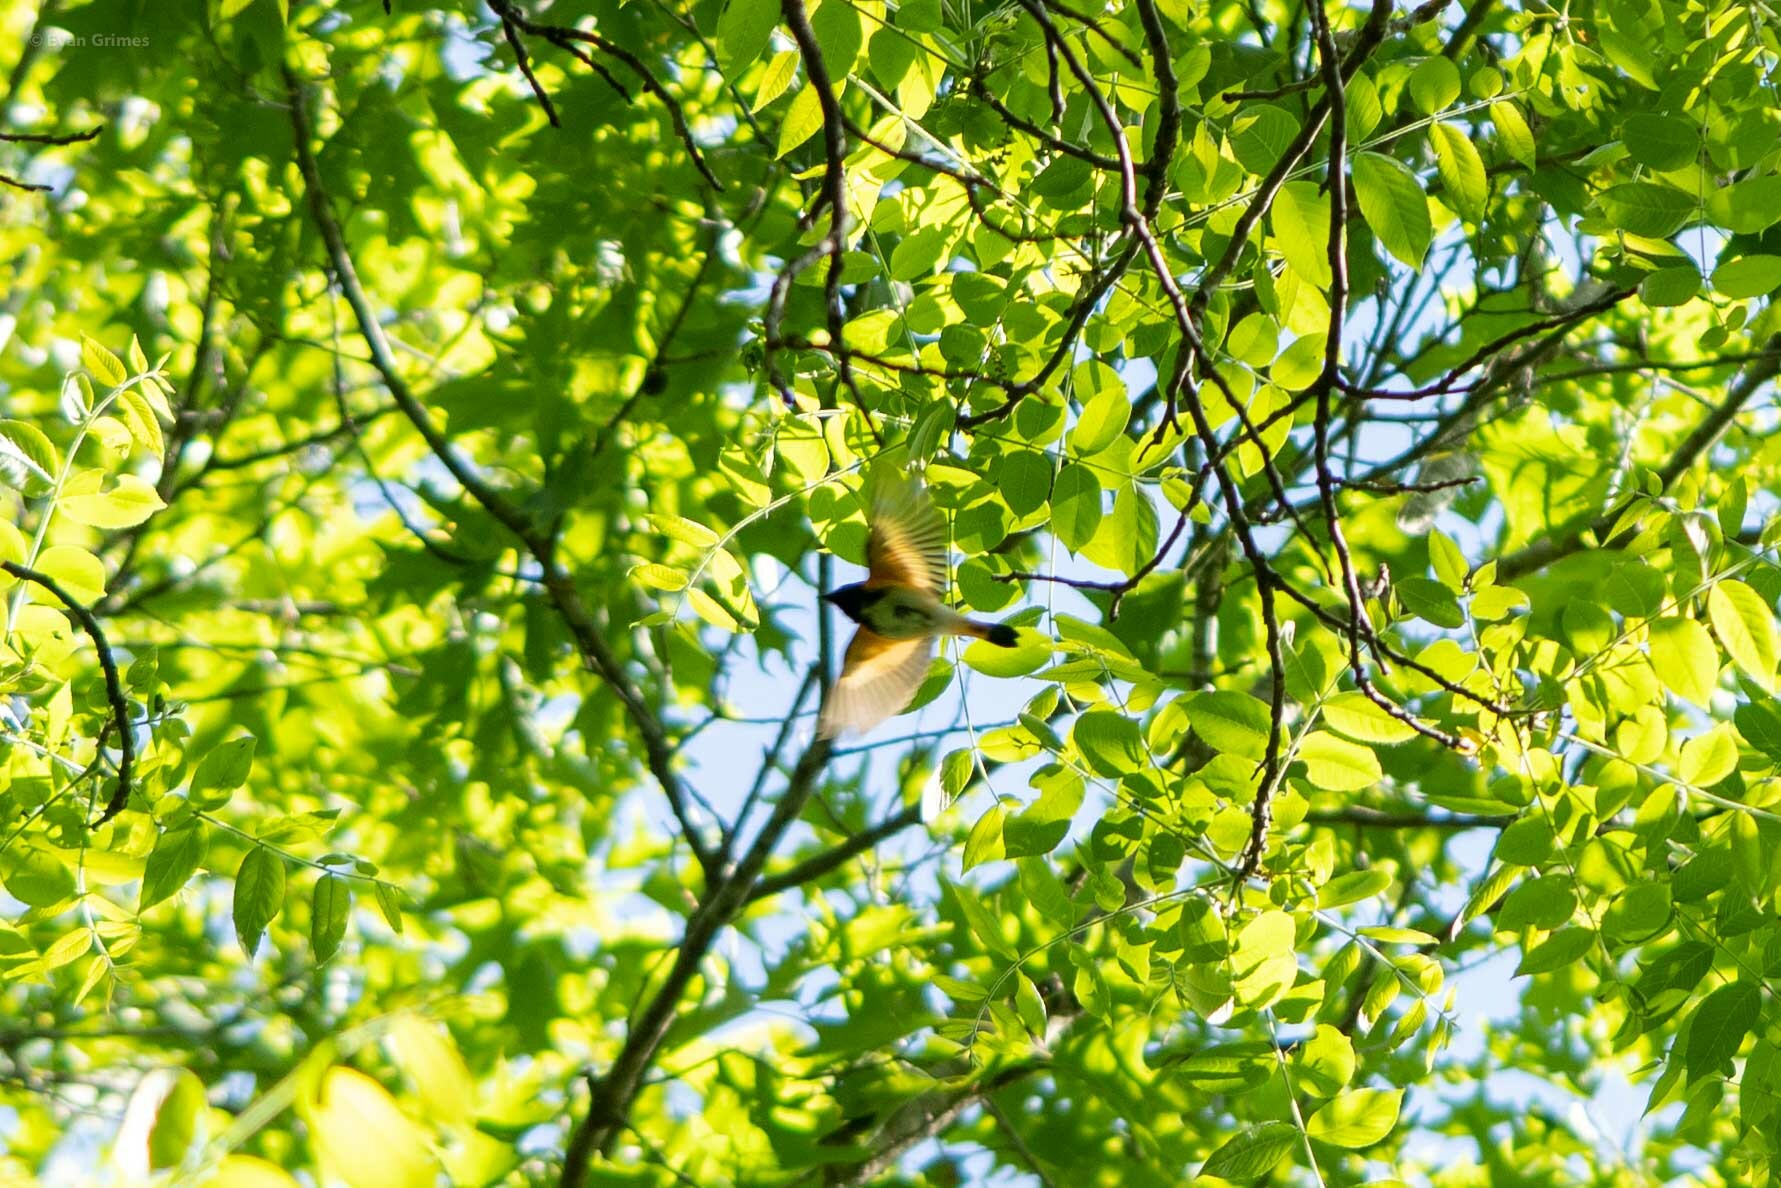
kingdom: Animalia
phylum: Chordata
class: Aves
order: Passeriformes
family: Parulidae
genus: Setophaga
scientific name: Setophaga ruticilla
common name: American redstart
